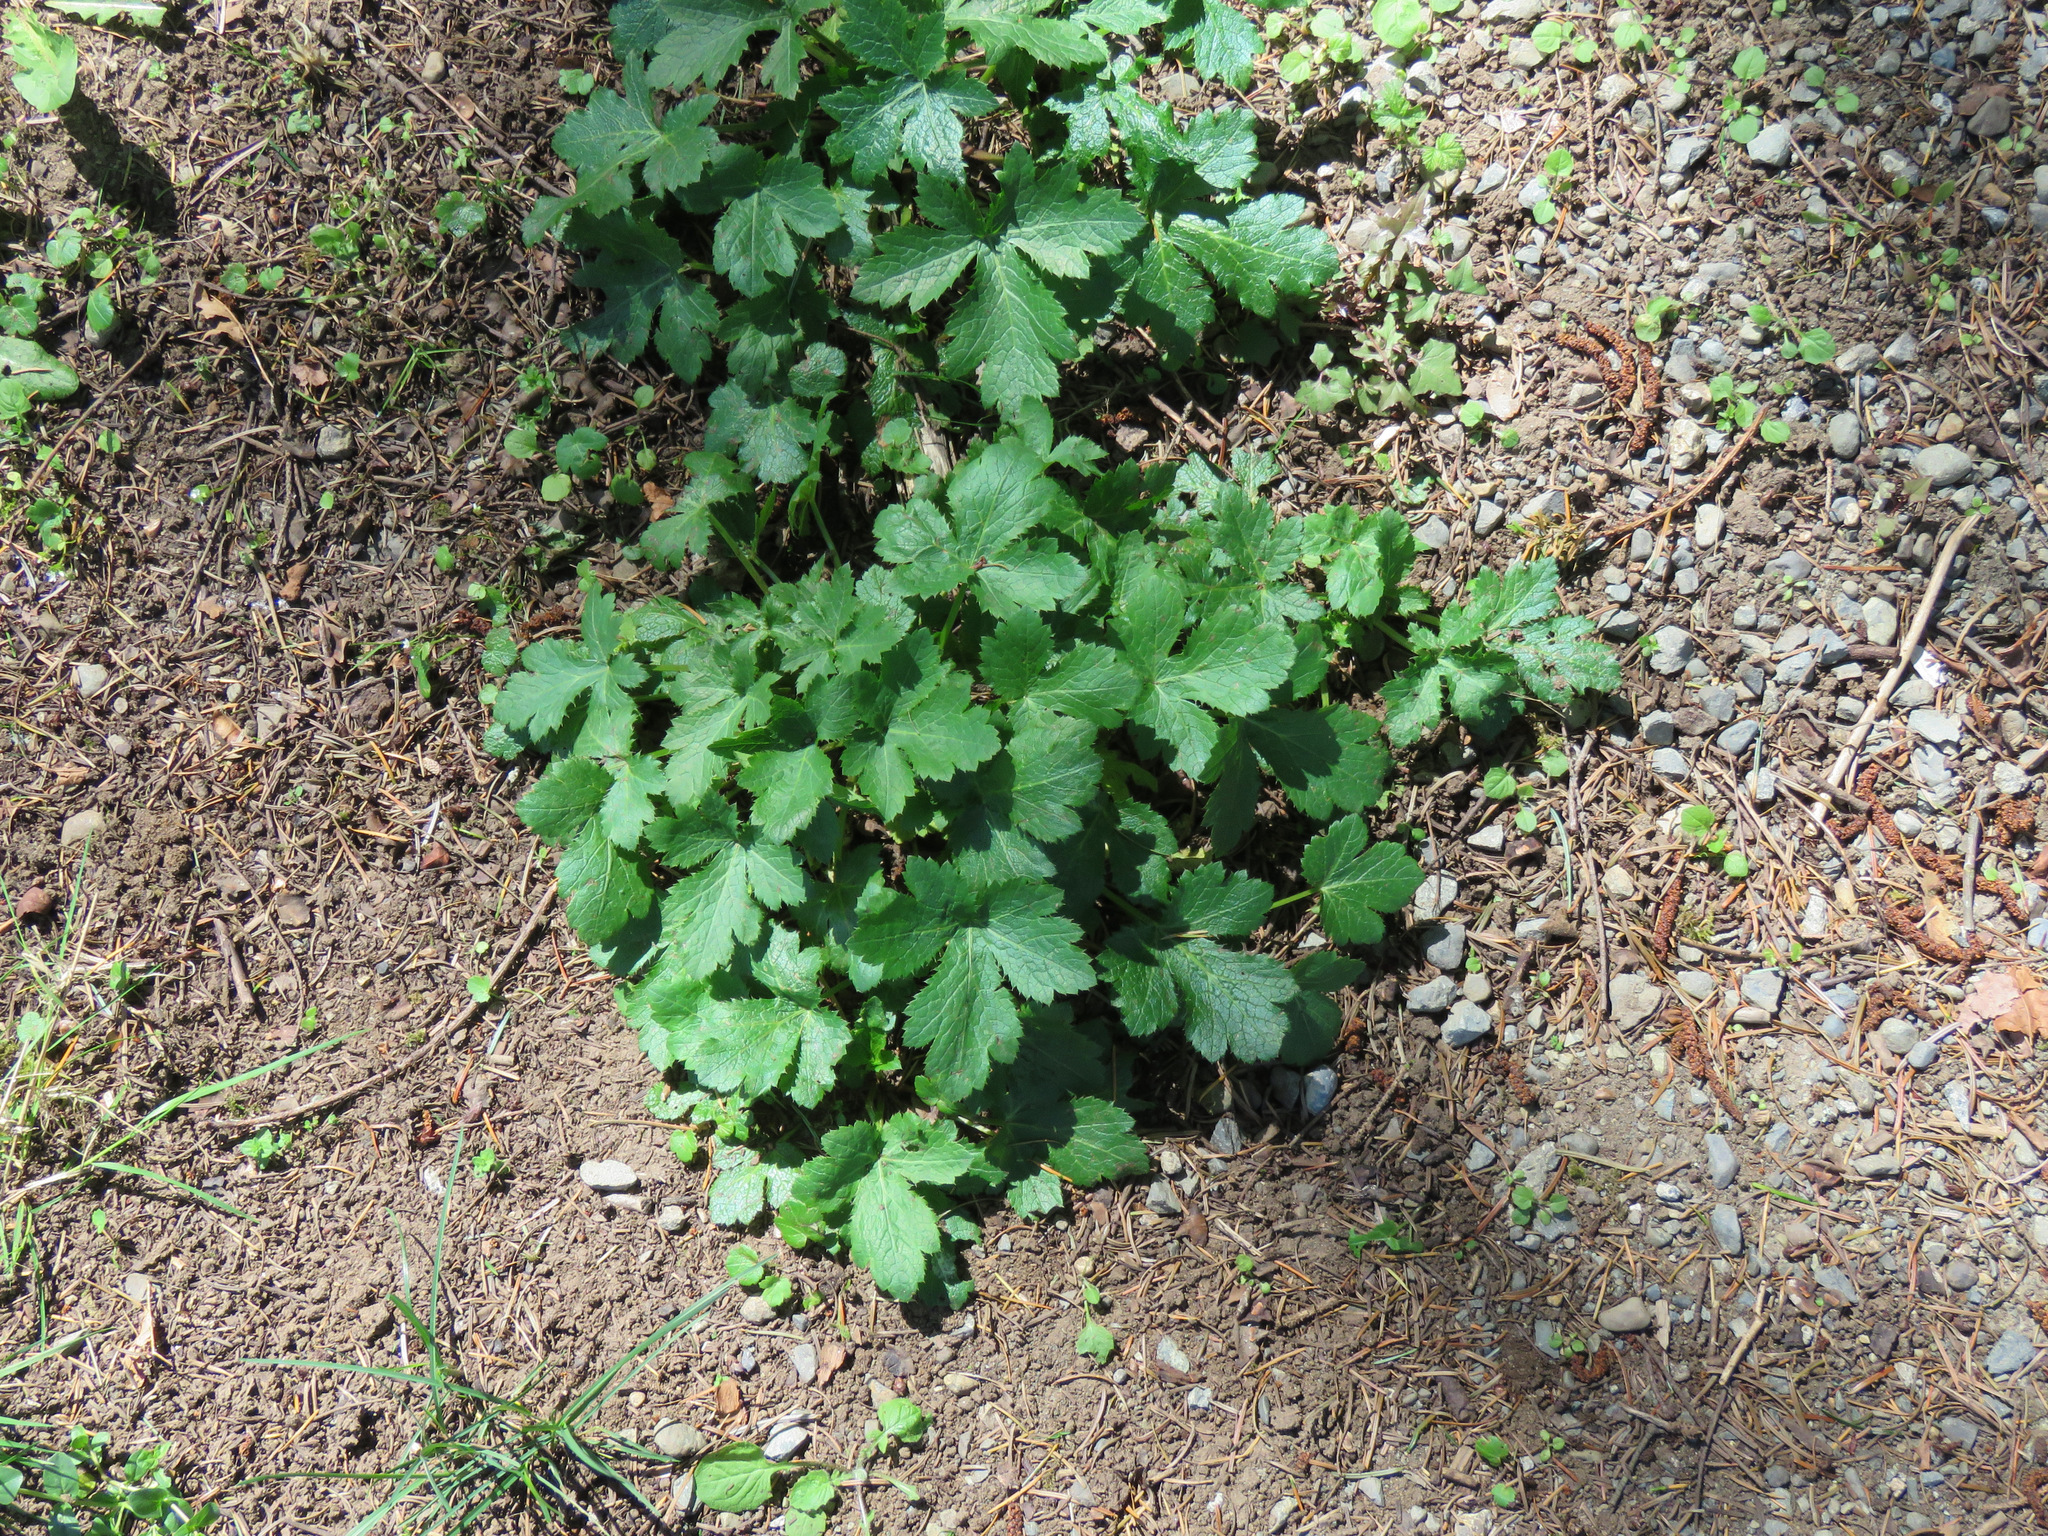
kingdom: Plantae
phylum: Tracheophyta
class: Magnoliopsida
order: Apiales
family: Apiaceae
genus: Sanicula
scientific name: Sanicula crassicaulis
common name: Western snakeroot
